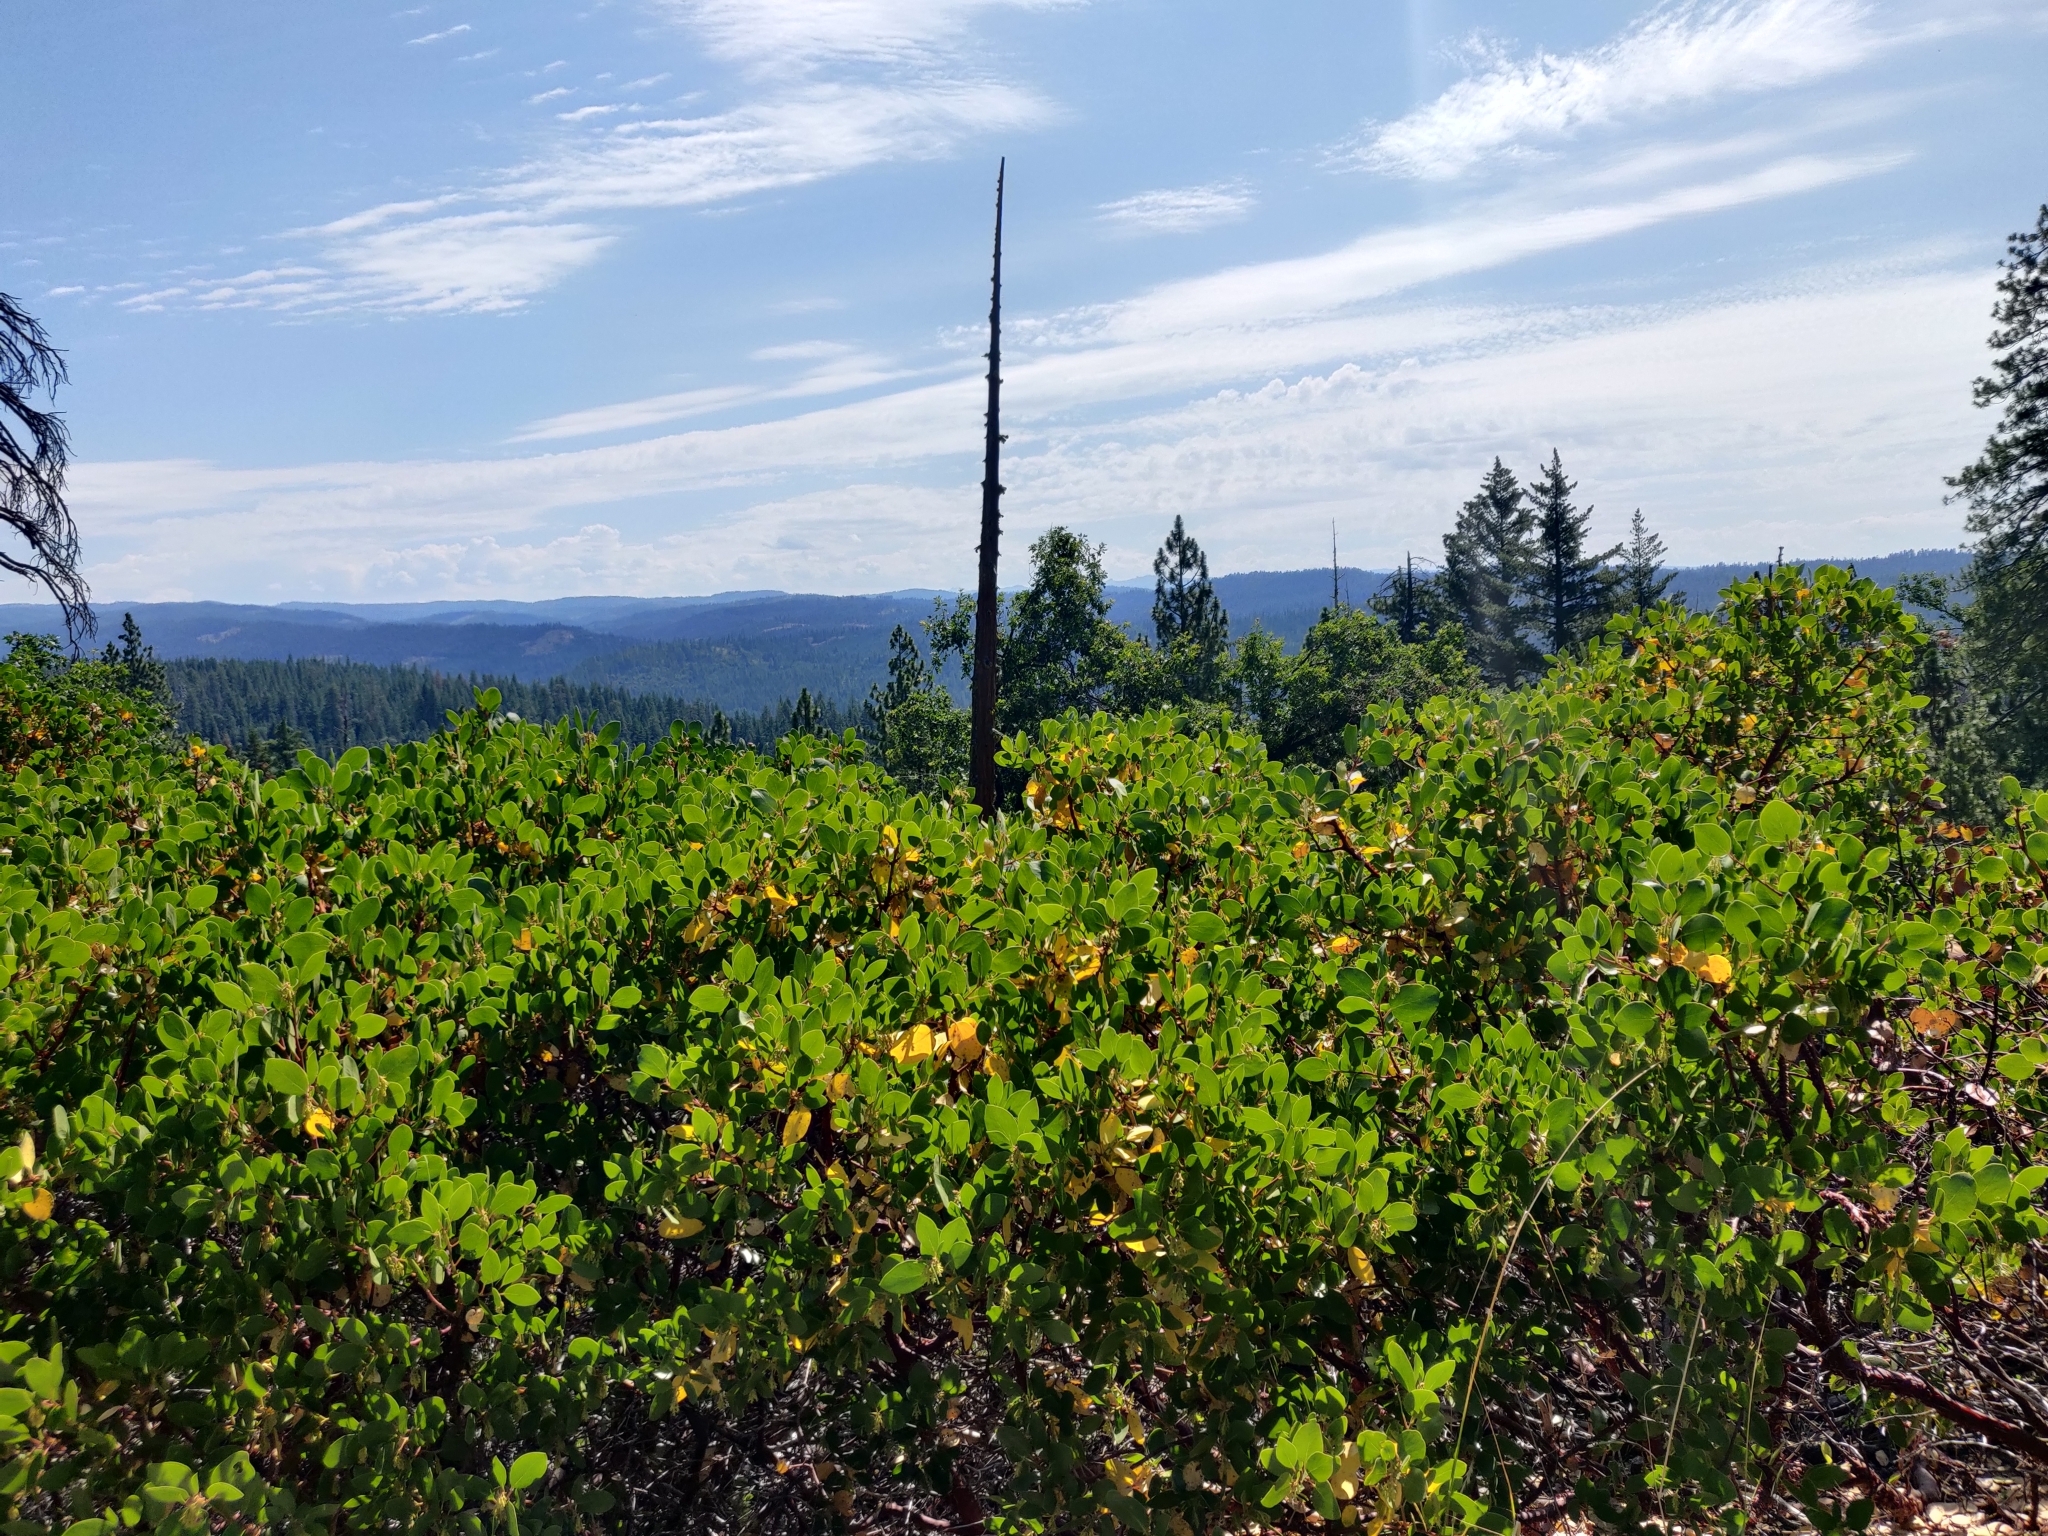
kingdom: Plantae
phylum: Tracheophyta
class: Magnoliopsida
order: Ericales
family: Ericaceae
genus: Arctostaphylos
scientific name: Arctostaphylos patula
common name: Green-leaf manzanita
